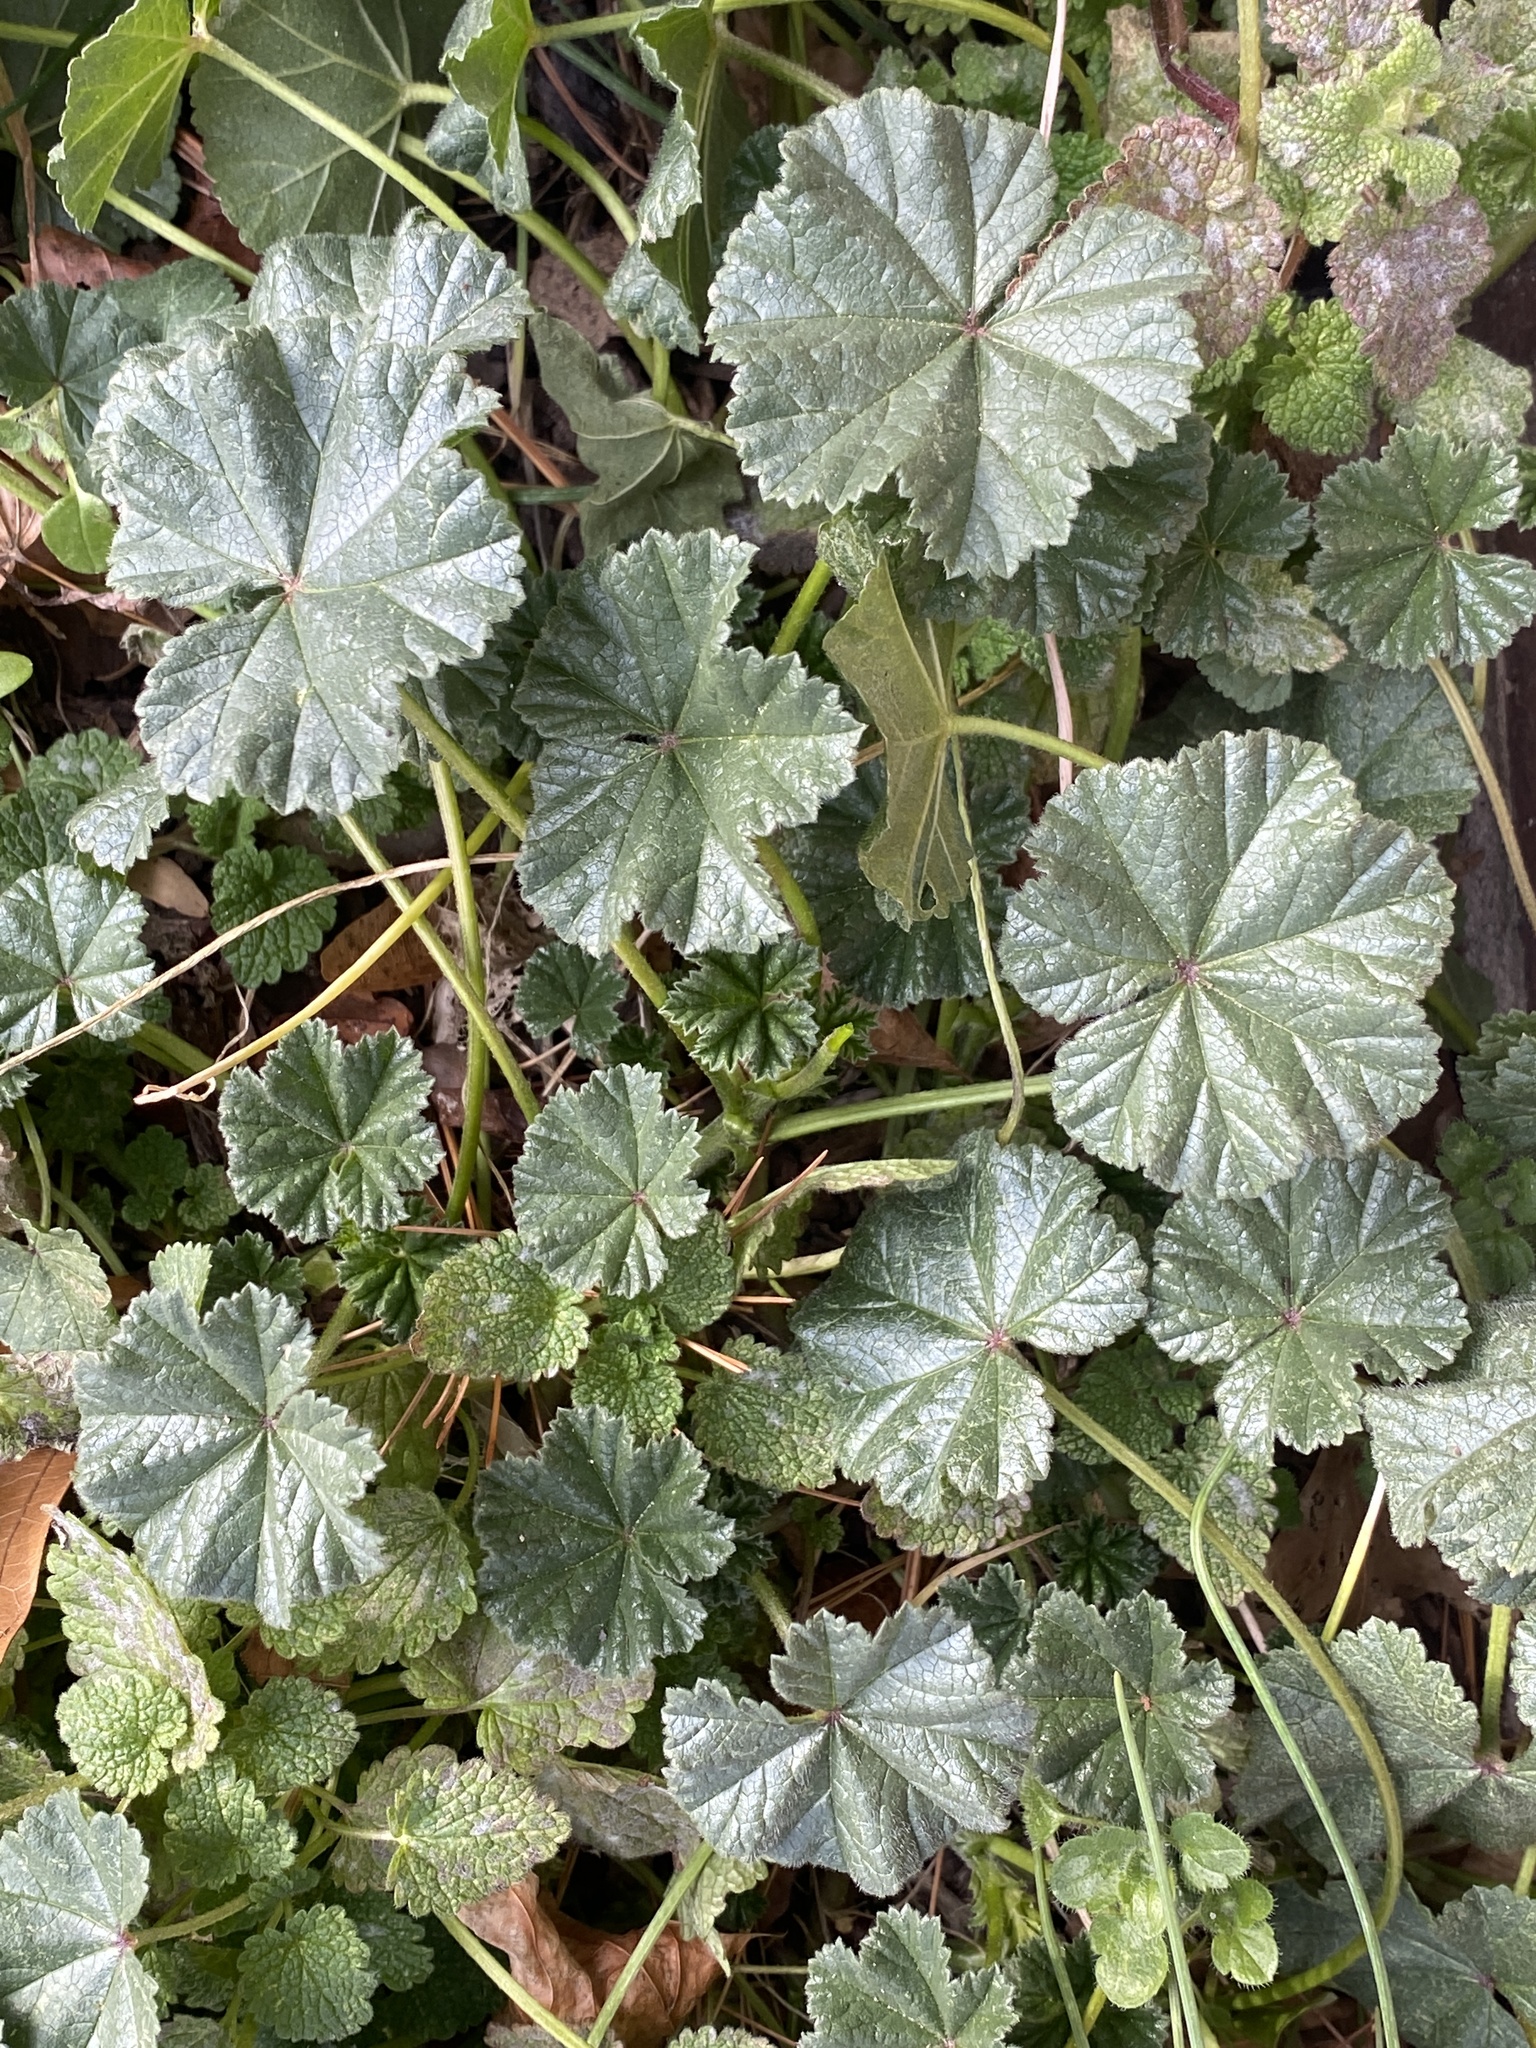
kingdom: Plantae
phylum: Tracheophyta
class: Magnoliopsida
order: Malvales
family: Malvaceae
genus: Malva
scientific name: Malva neglecta
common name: Common mallow
